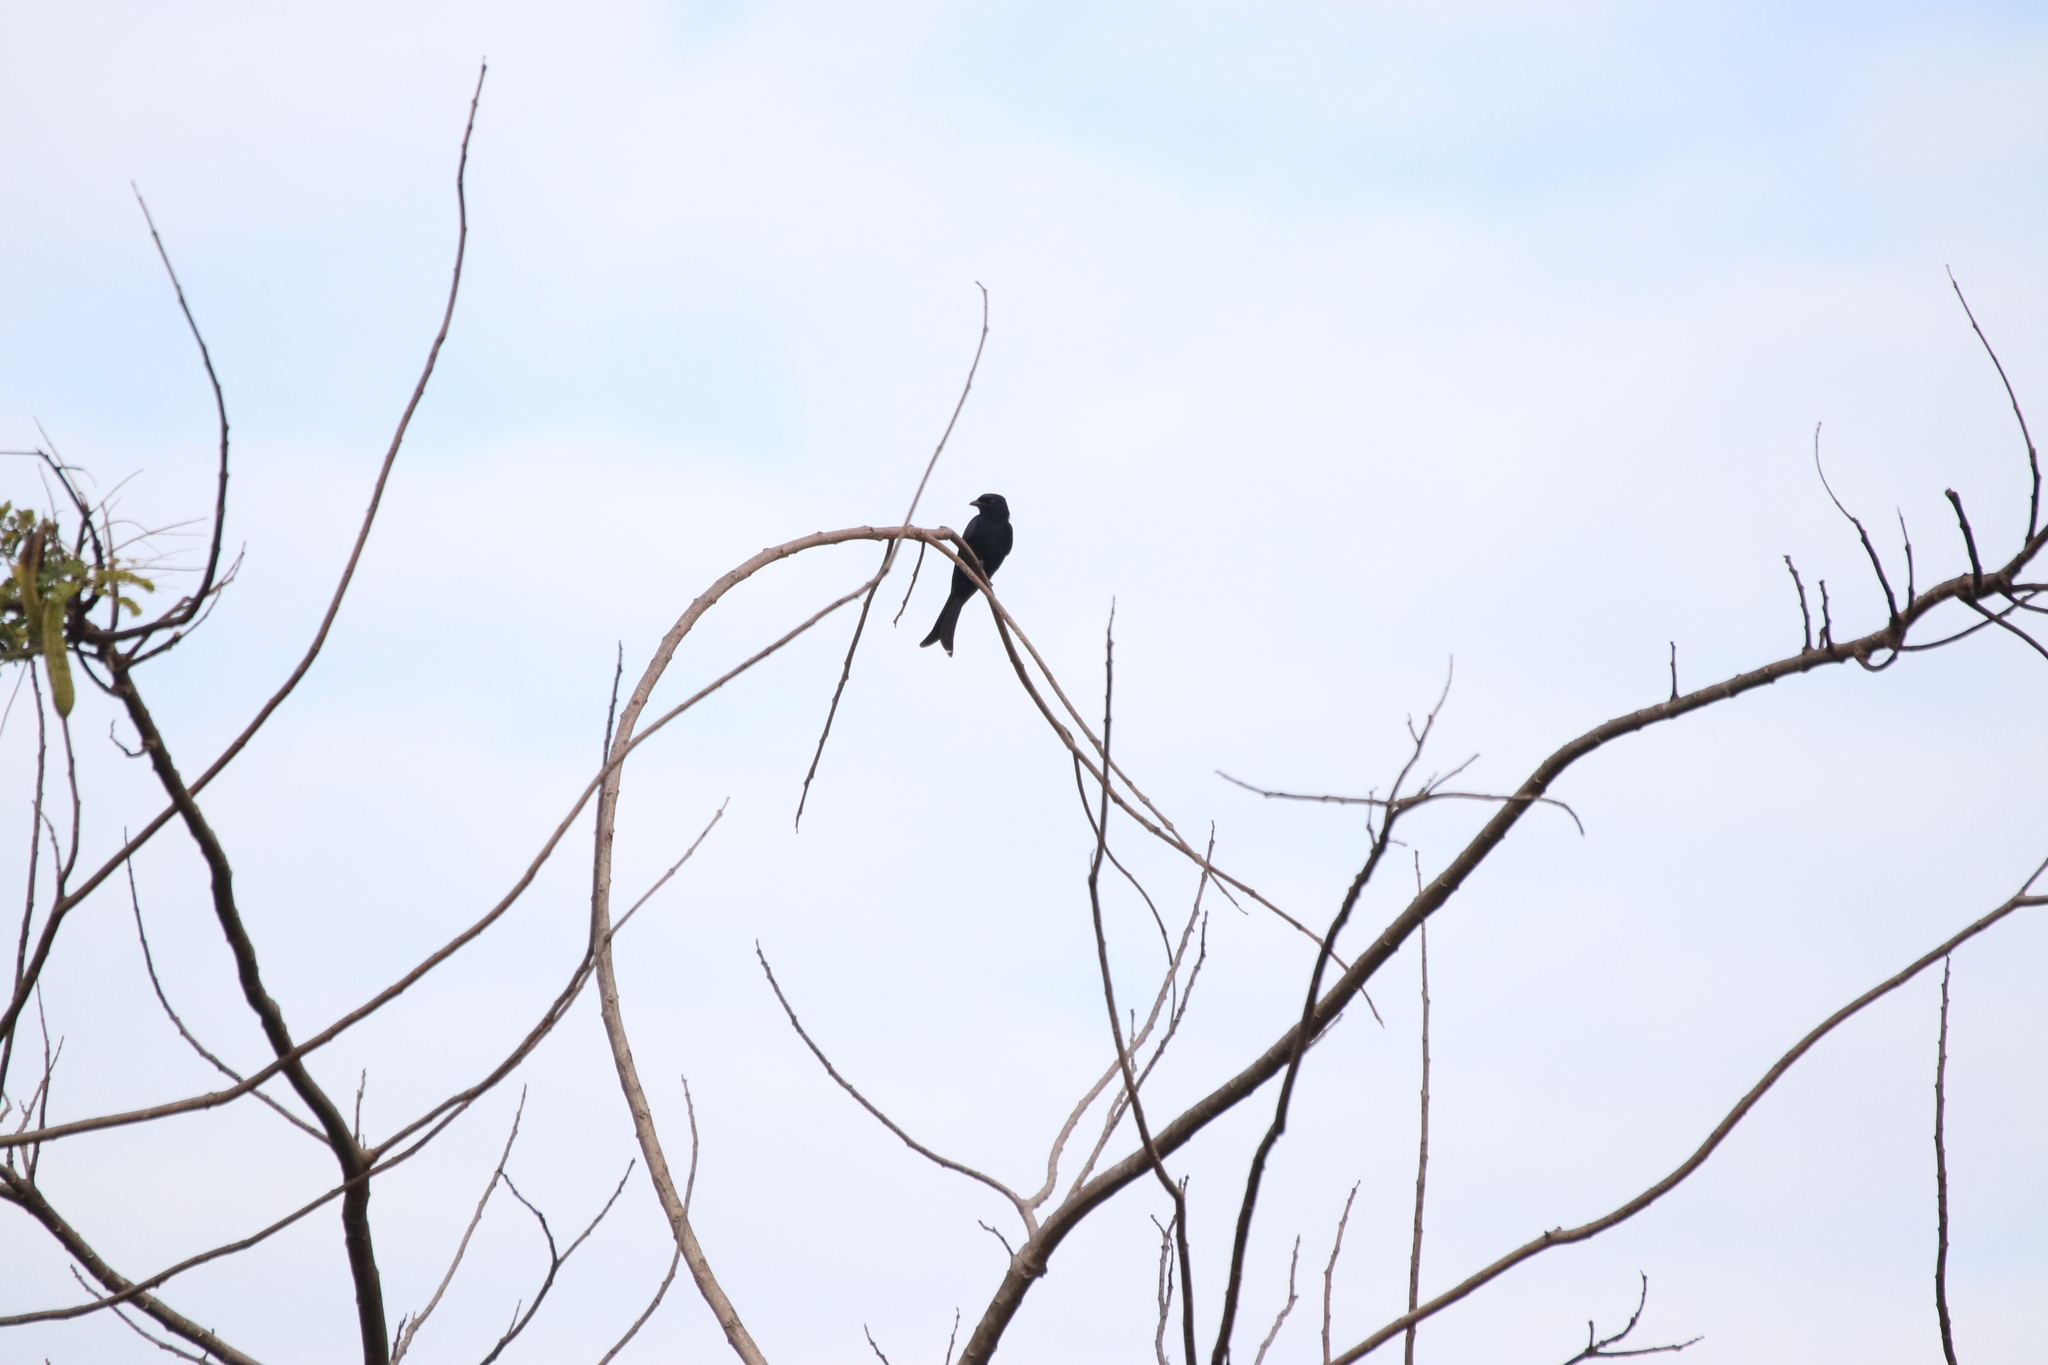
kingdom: Animalia
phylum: Chordata
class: Aves
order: Passeriformes
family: Dicruridae
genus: Dicrurus
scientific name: Dicrurus adsimilis
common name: Fork-tailed drongo
